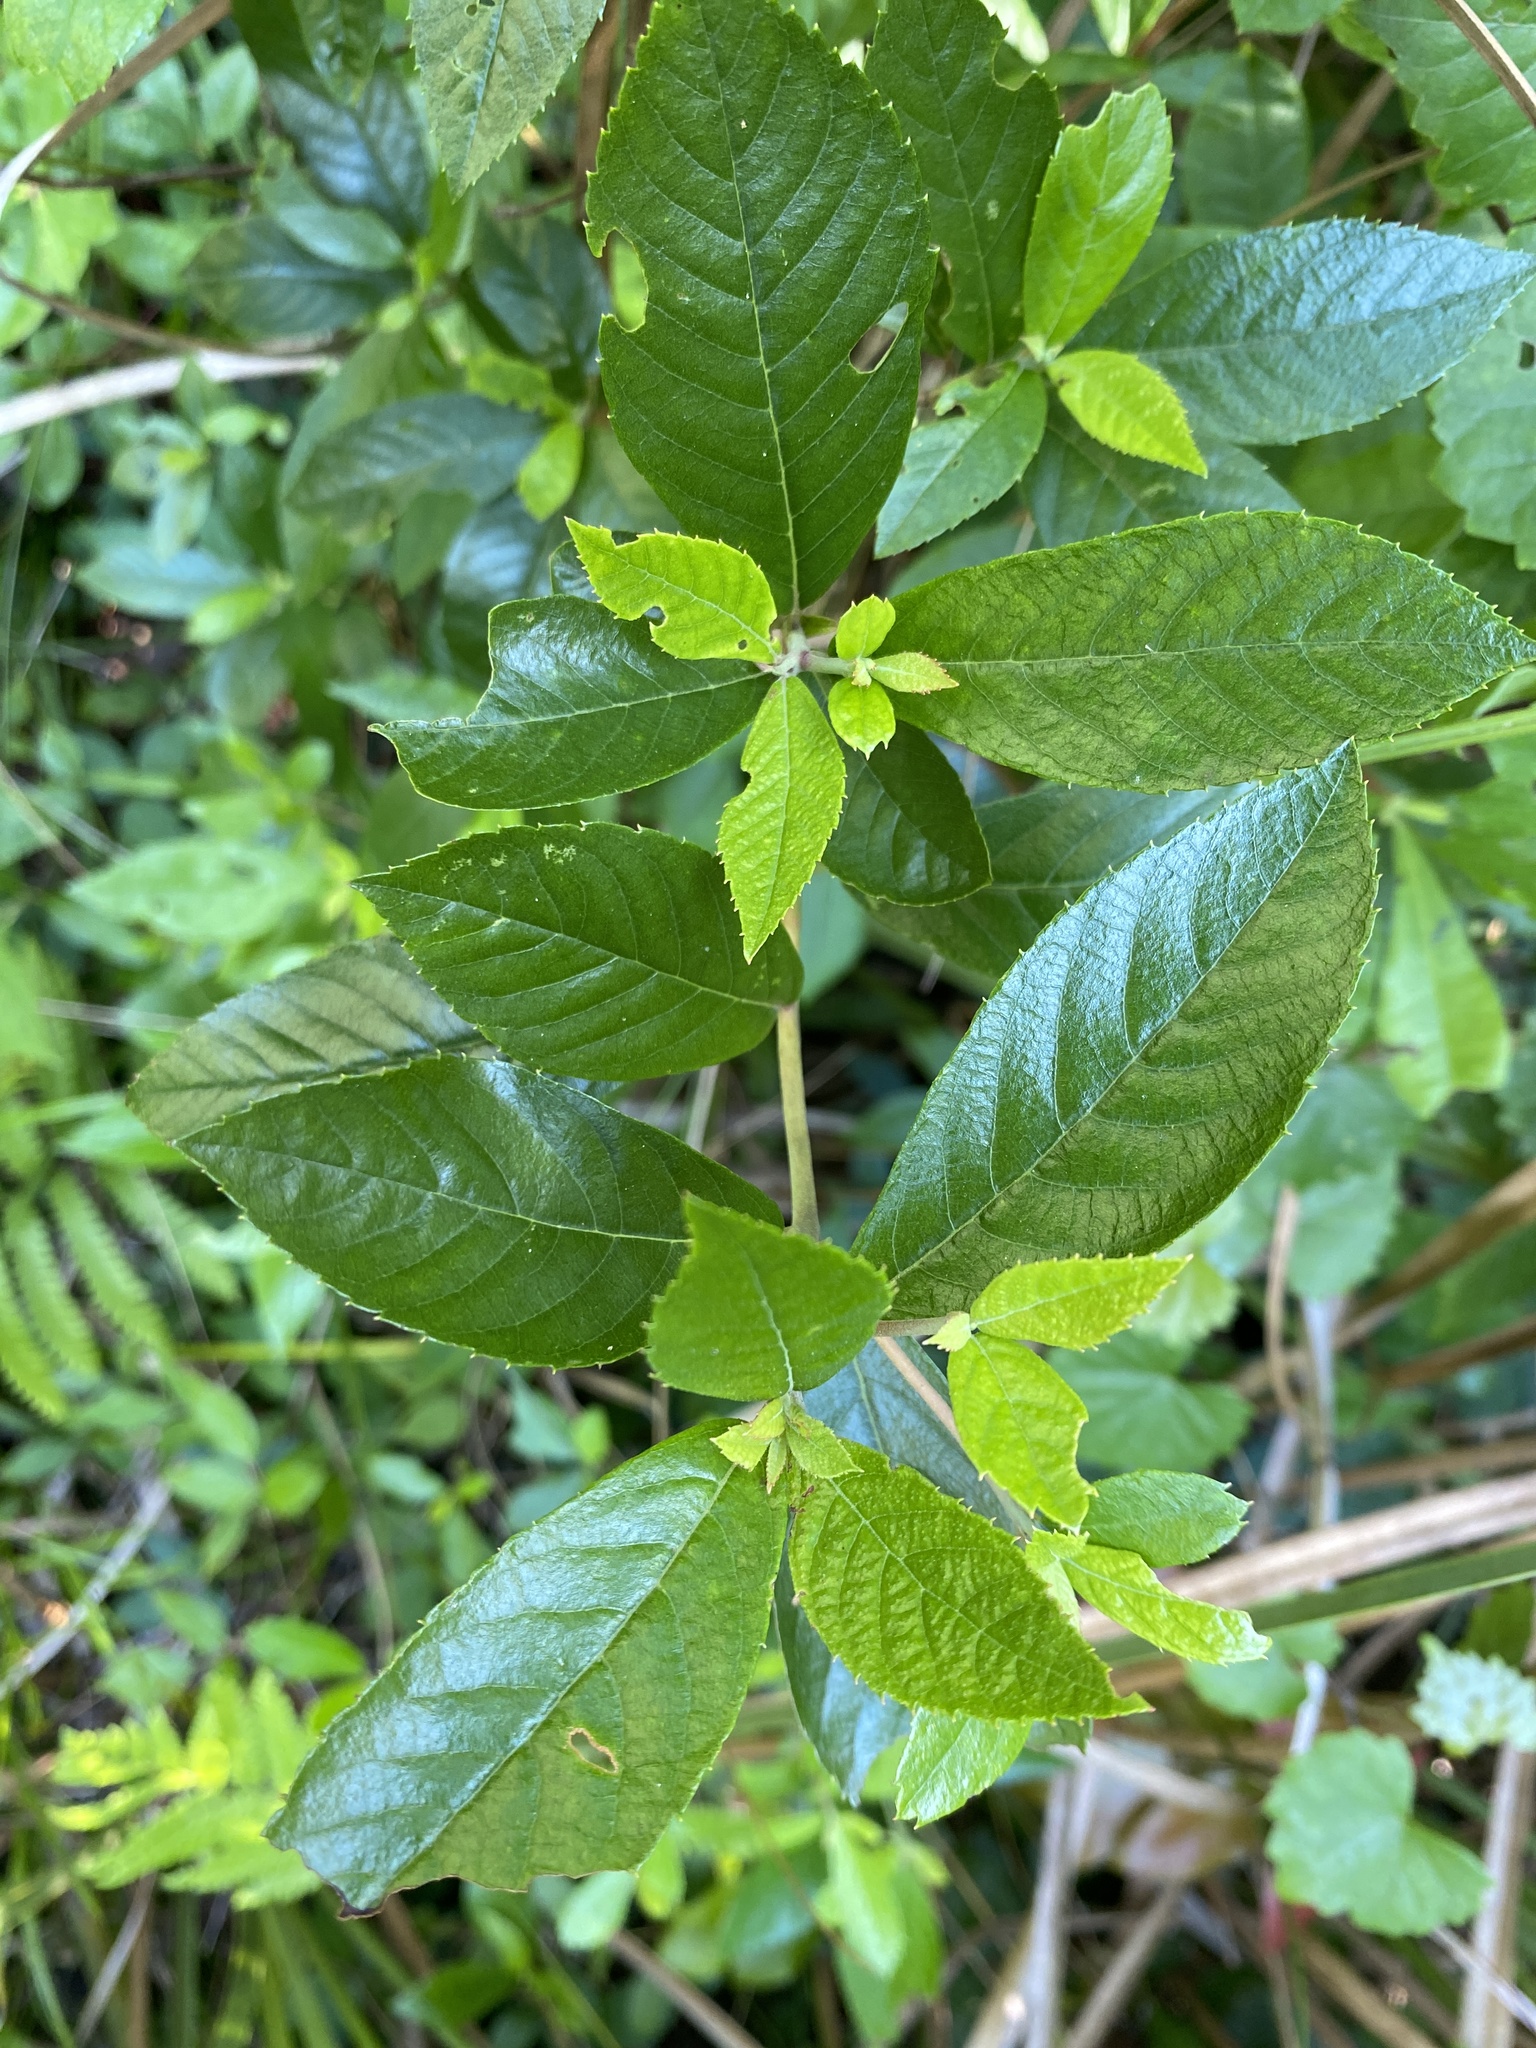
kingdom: Plantae
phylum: Tracheophyta
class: Magnoliopsida
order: Ericales
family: Clethraceae
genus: Clethra
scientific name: Clethra alnifolia
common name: Sweet pepperbush
